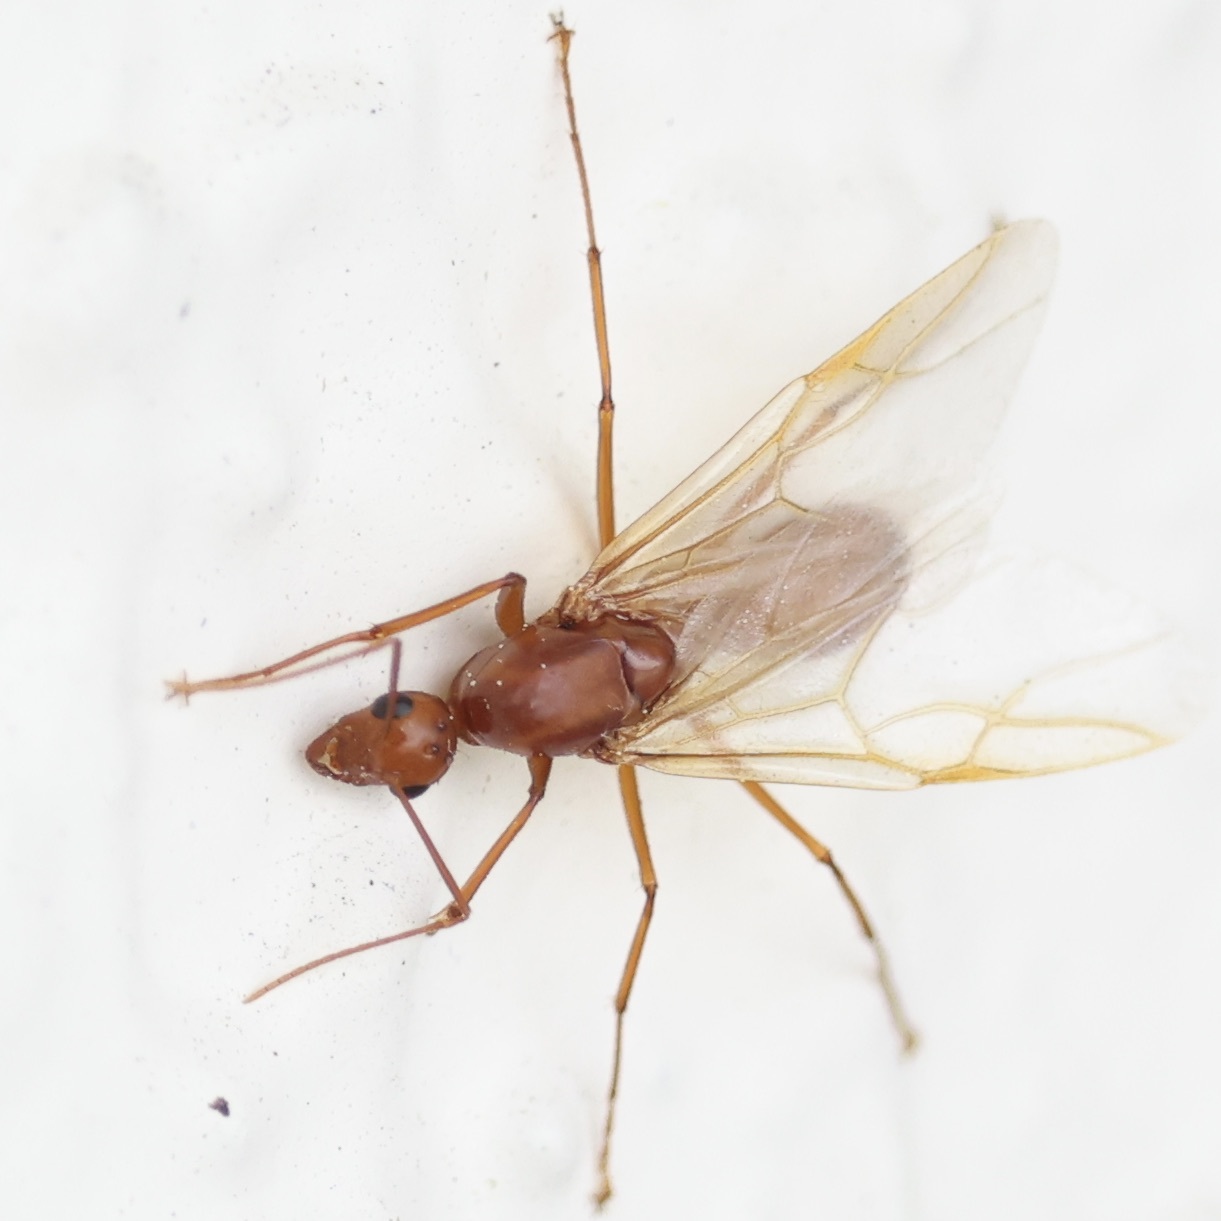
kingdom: Animalia
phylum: Arthropoda
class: Insecta
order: Hymenoptera
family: Formicidae
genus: Camponotus
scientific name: Camponotus castaneus
